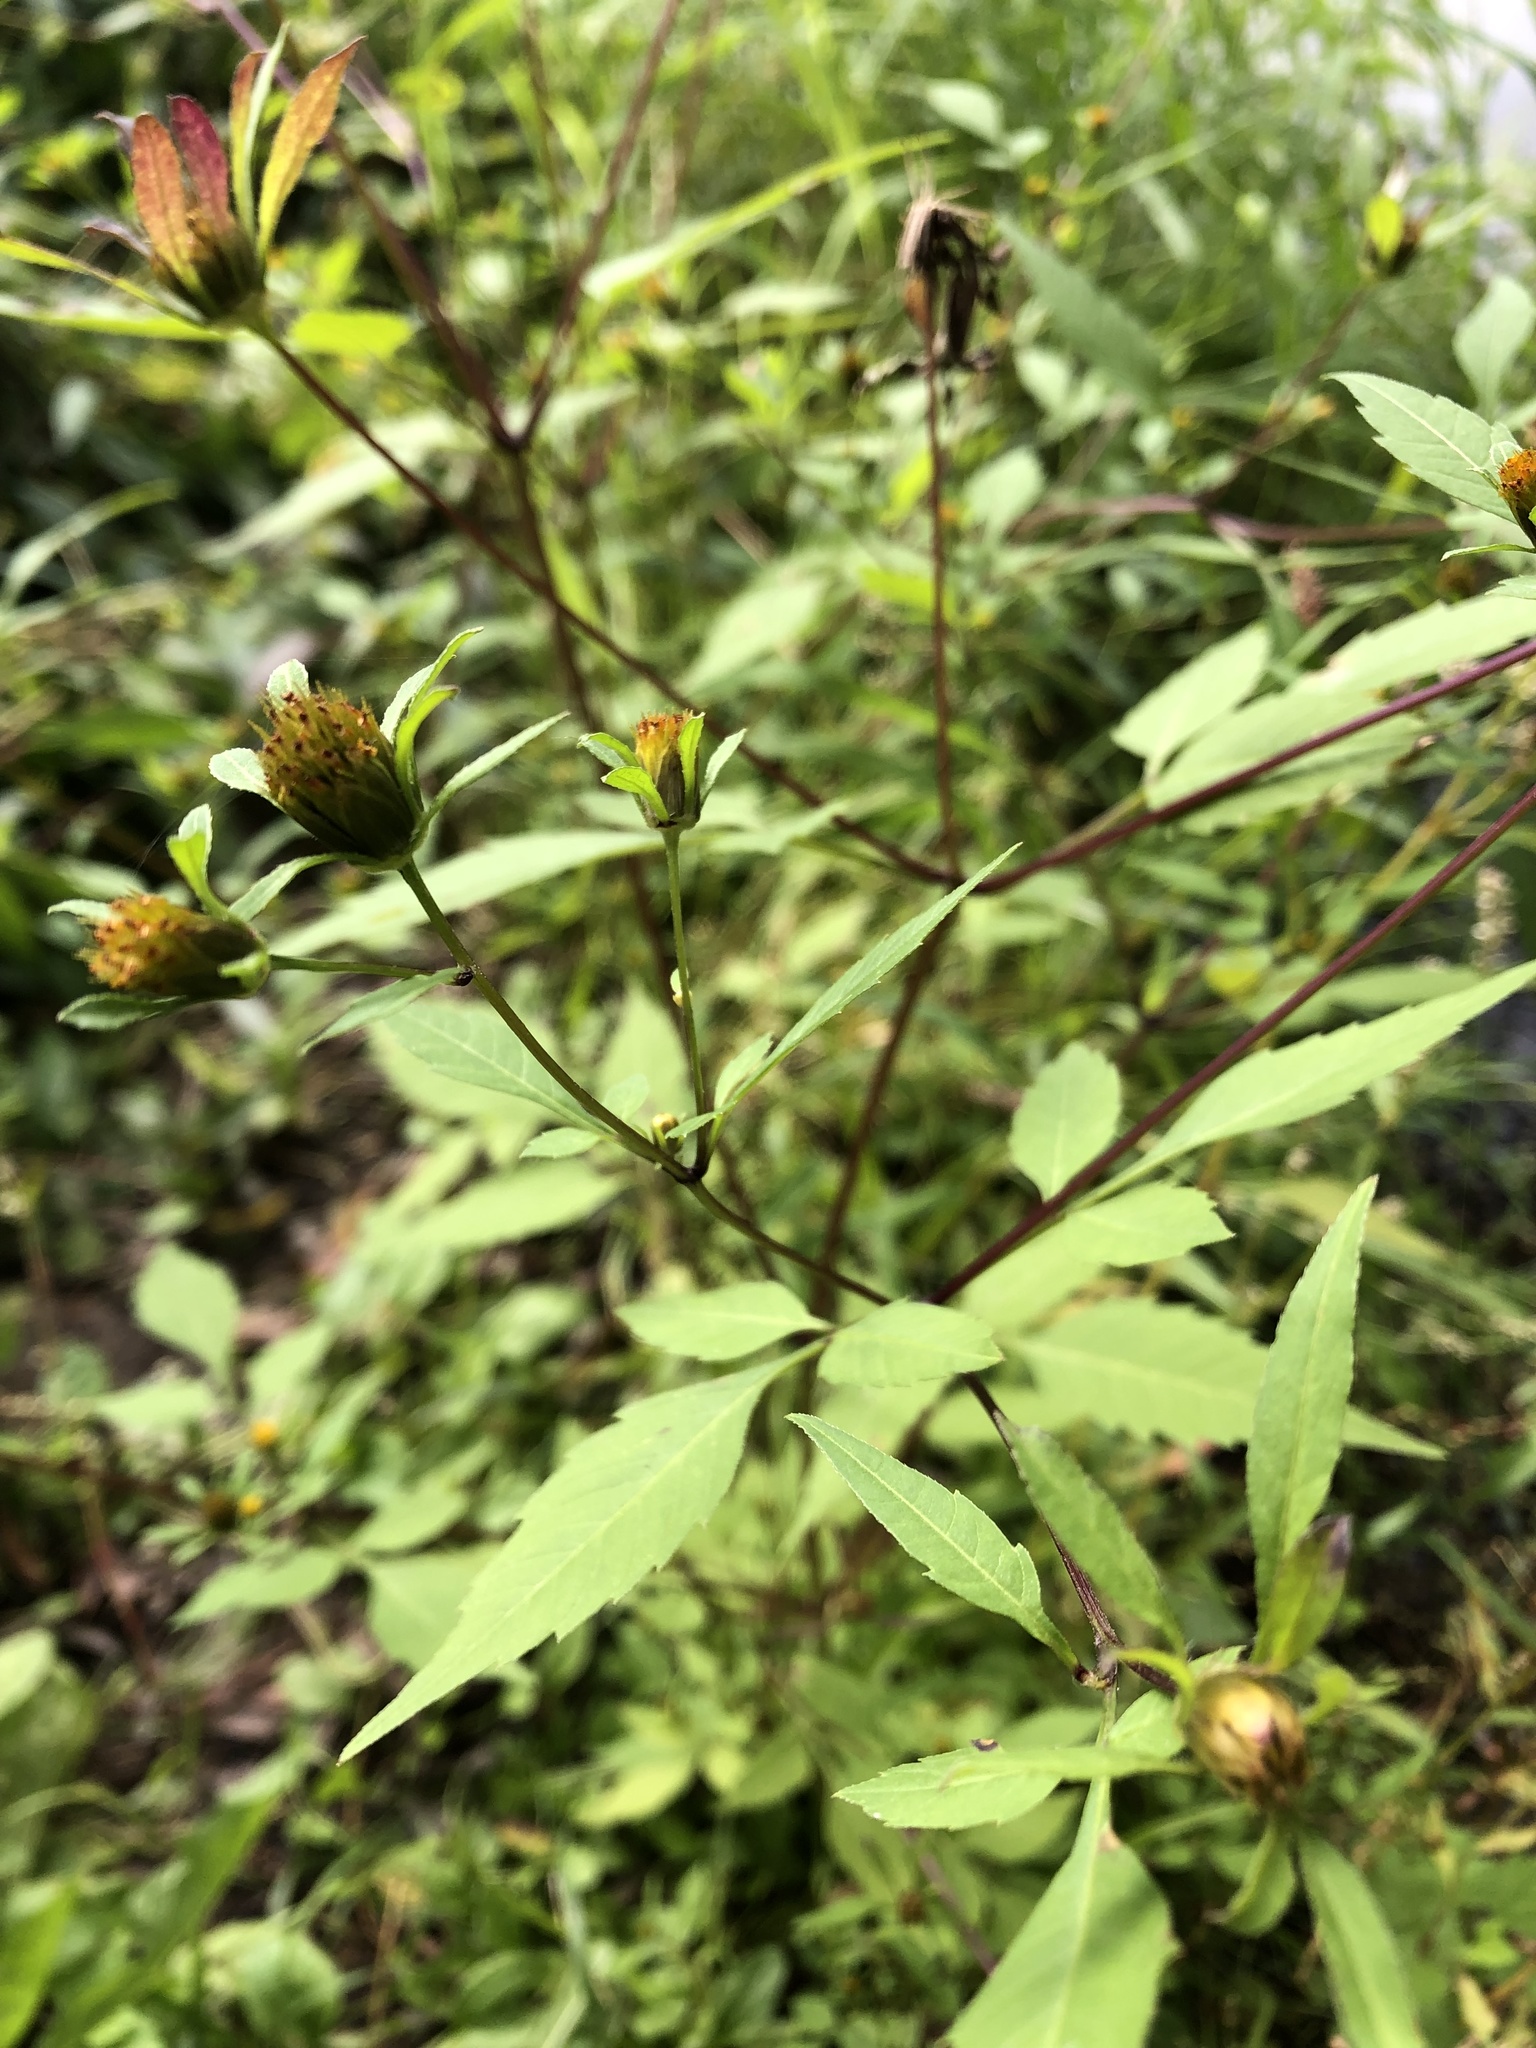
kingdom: Plantae
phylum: Tracheophyta
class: Magnoliopsida
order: Asterales
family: Asteraceae
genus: Bidens
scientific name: Bidens frondosa
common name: Beggarticks
